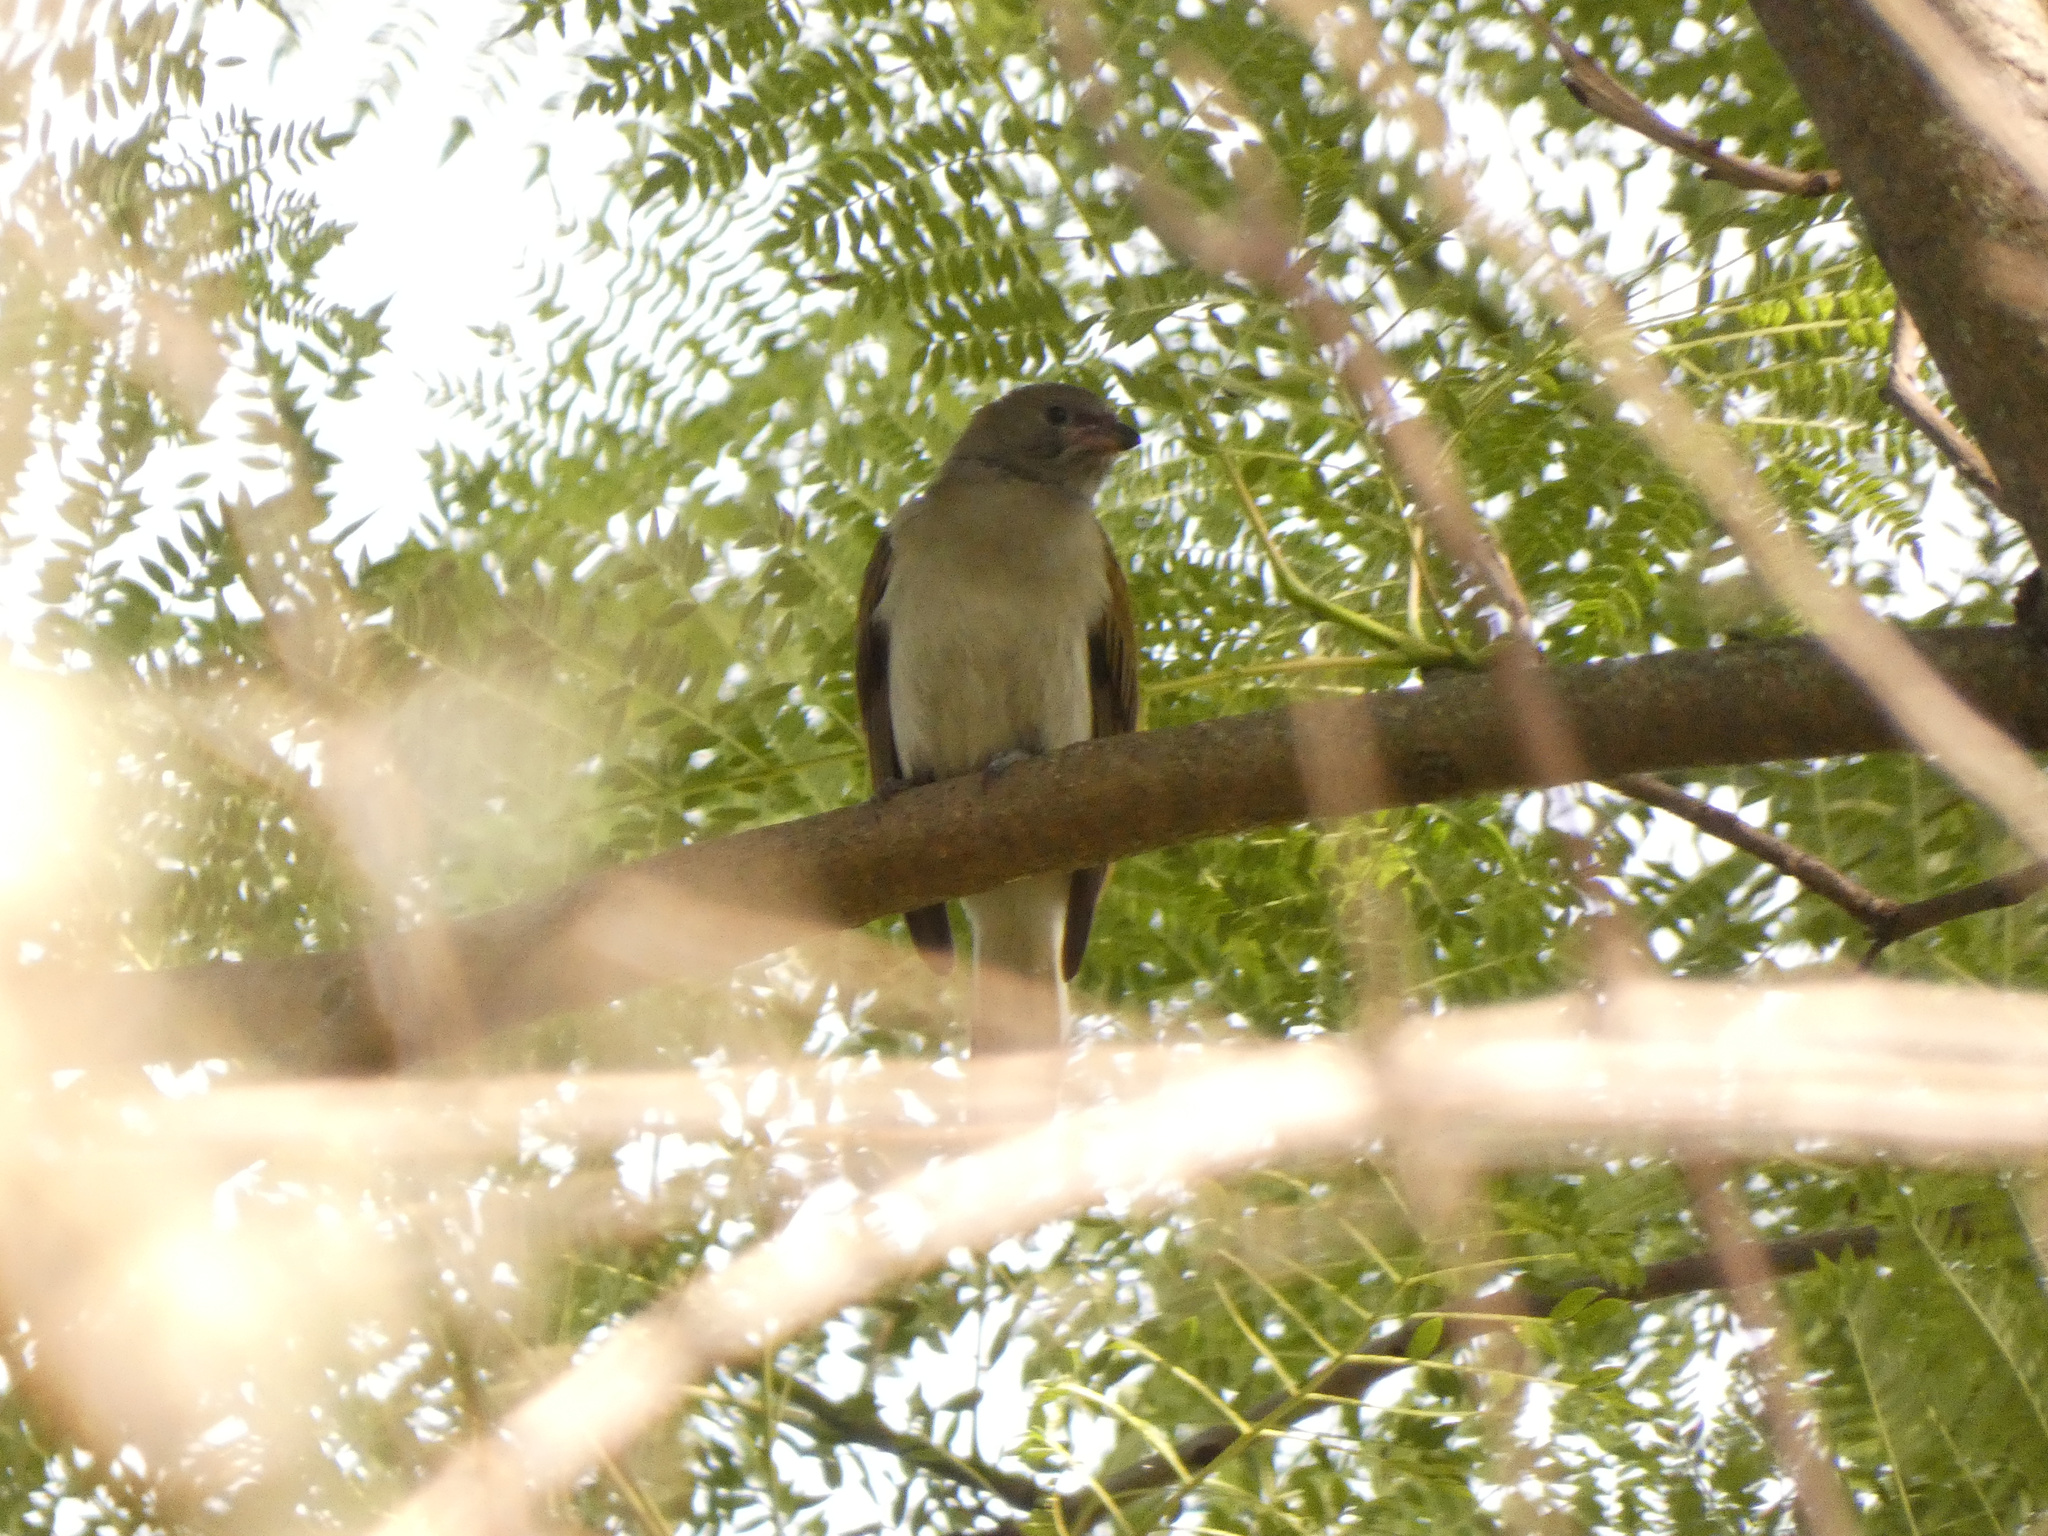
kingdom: Animalia
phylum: Chordata
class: Aves
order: Piciformes
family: Indicatoridae
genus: Indicator
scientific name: Indicator minor
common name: Lesser honeyguide
